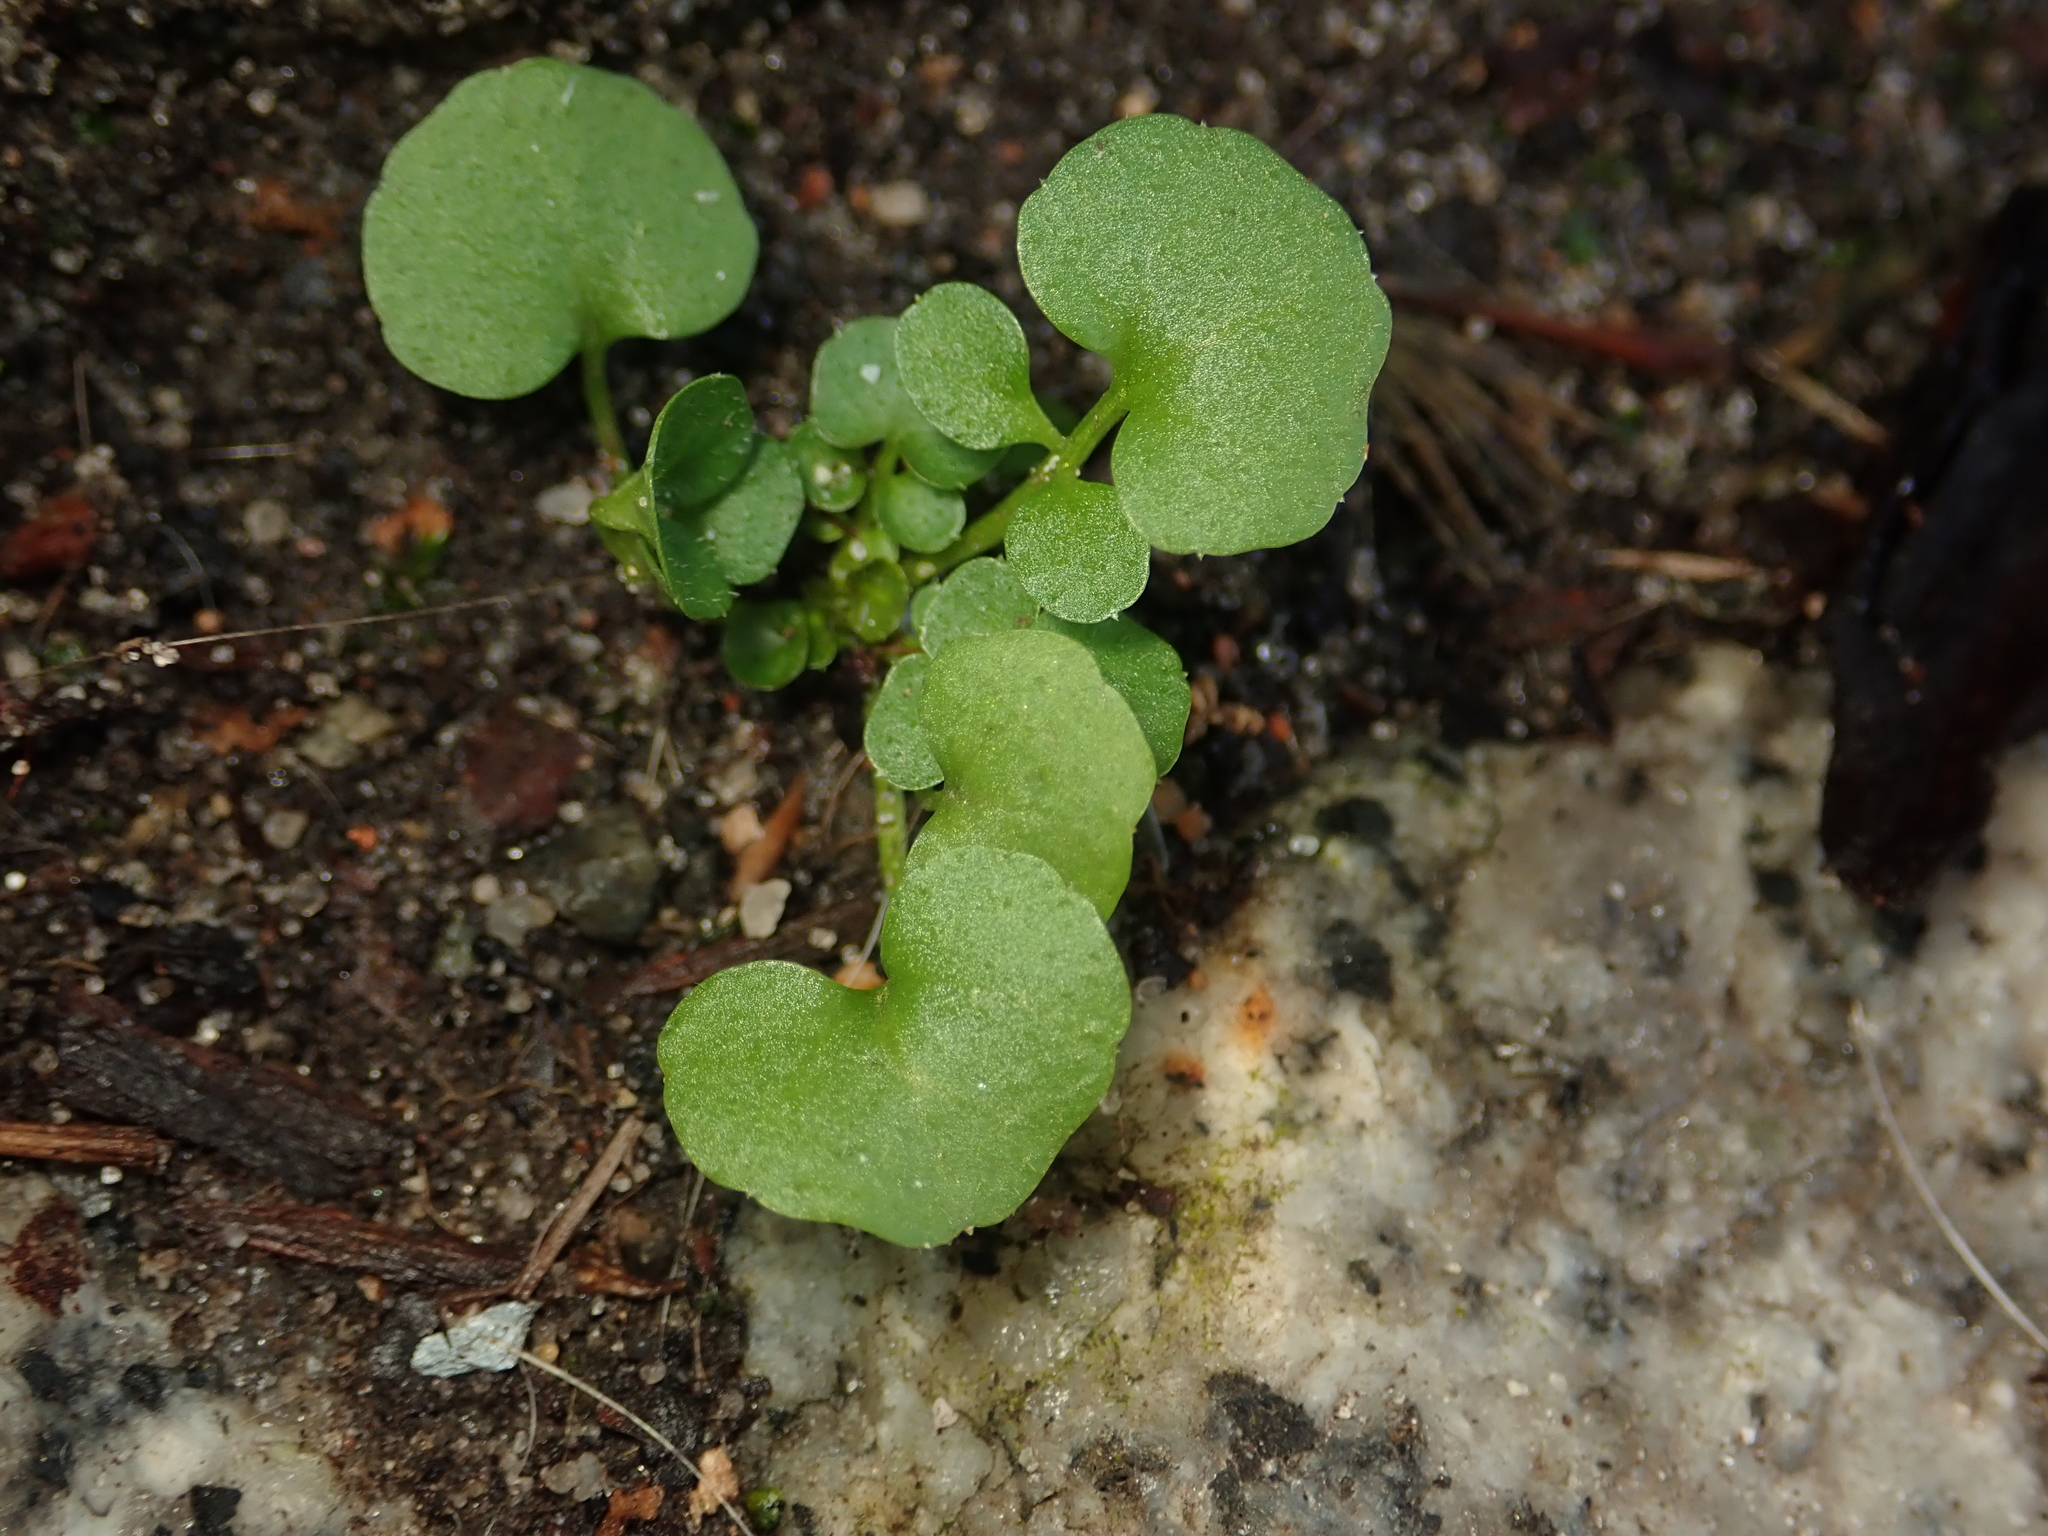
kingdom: Plantae
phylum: Tracheophyta
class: Magnoliopsida
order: Brassicales
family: Brassicaceae
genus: Cardamine
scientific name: Cardamine hirsuta
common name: Hairy bittercress
